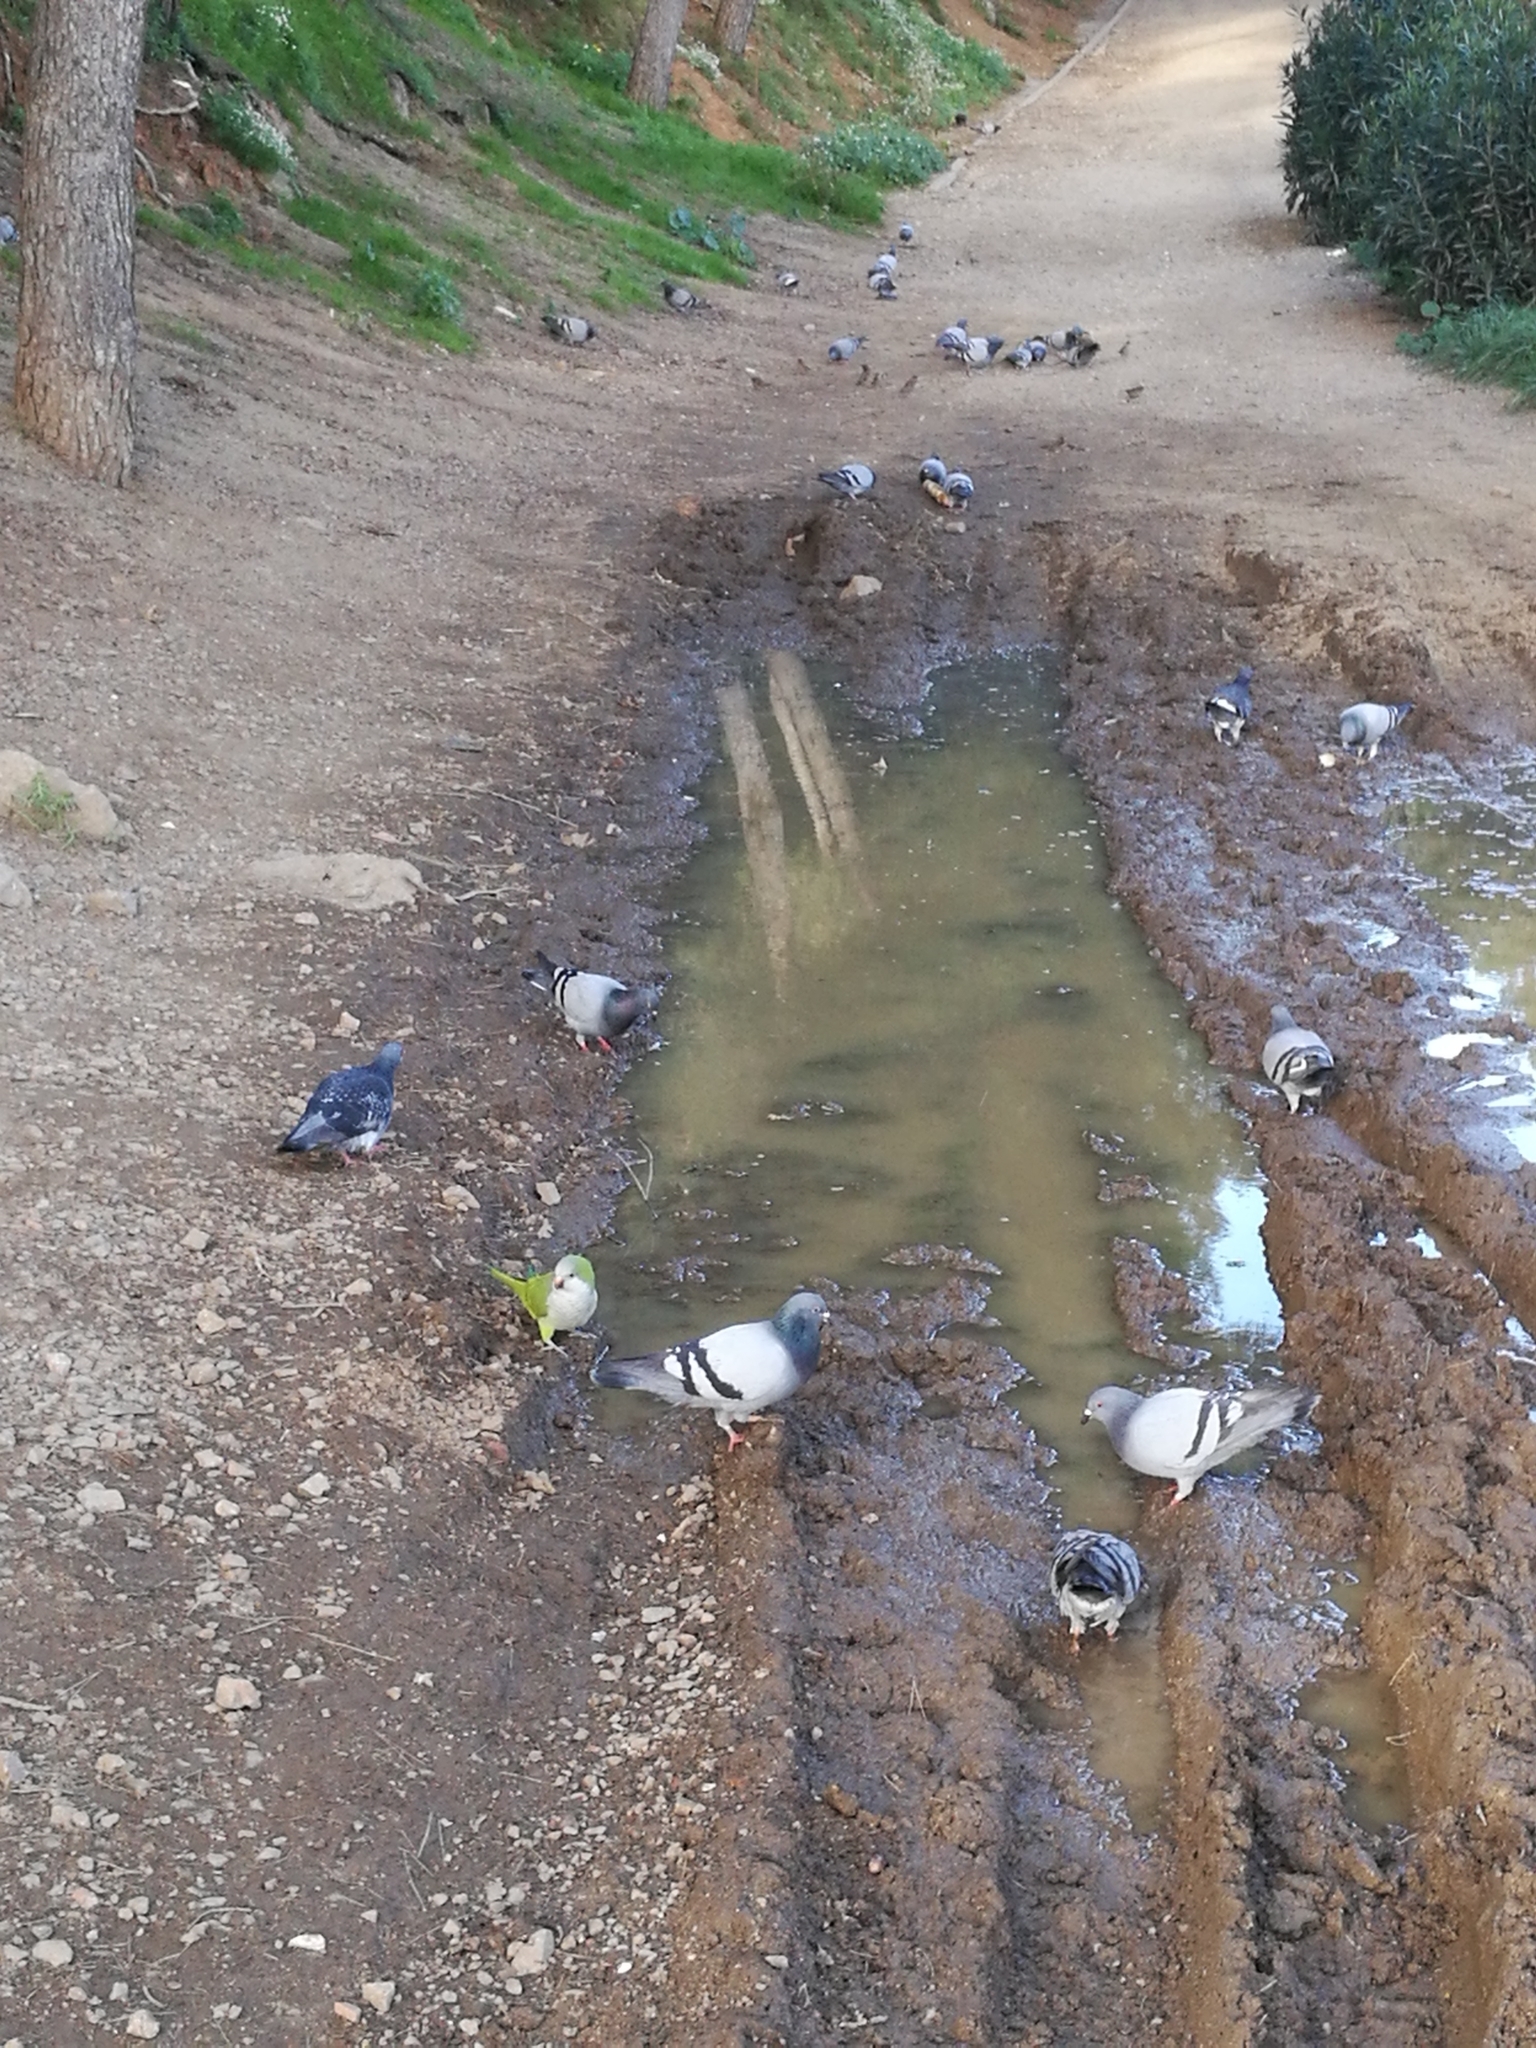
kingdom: Animalia
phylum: Chordata
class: Aves
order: Psittaciformes
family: Psittacidae
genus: Myiopsitta
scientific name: Myiopsitta monachus
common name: Monk parakeet
